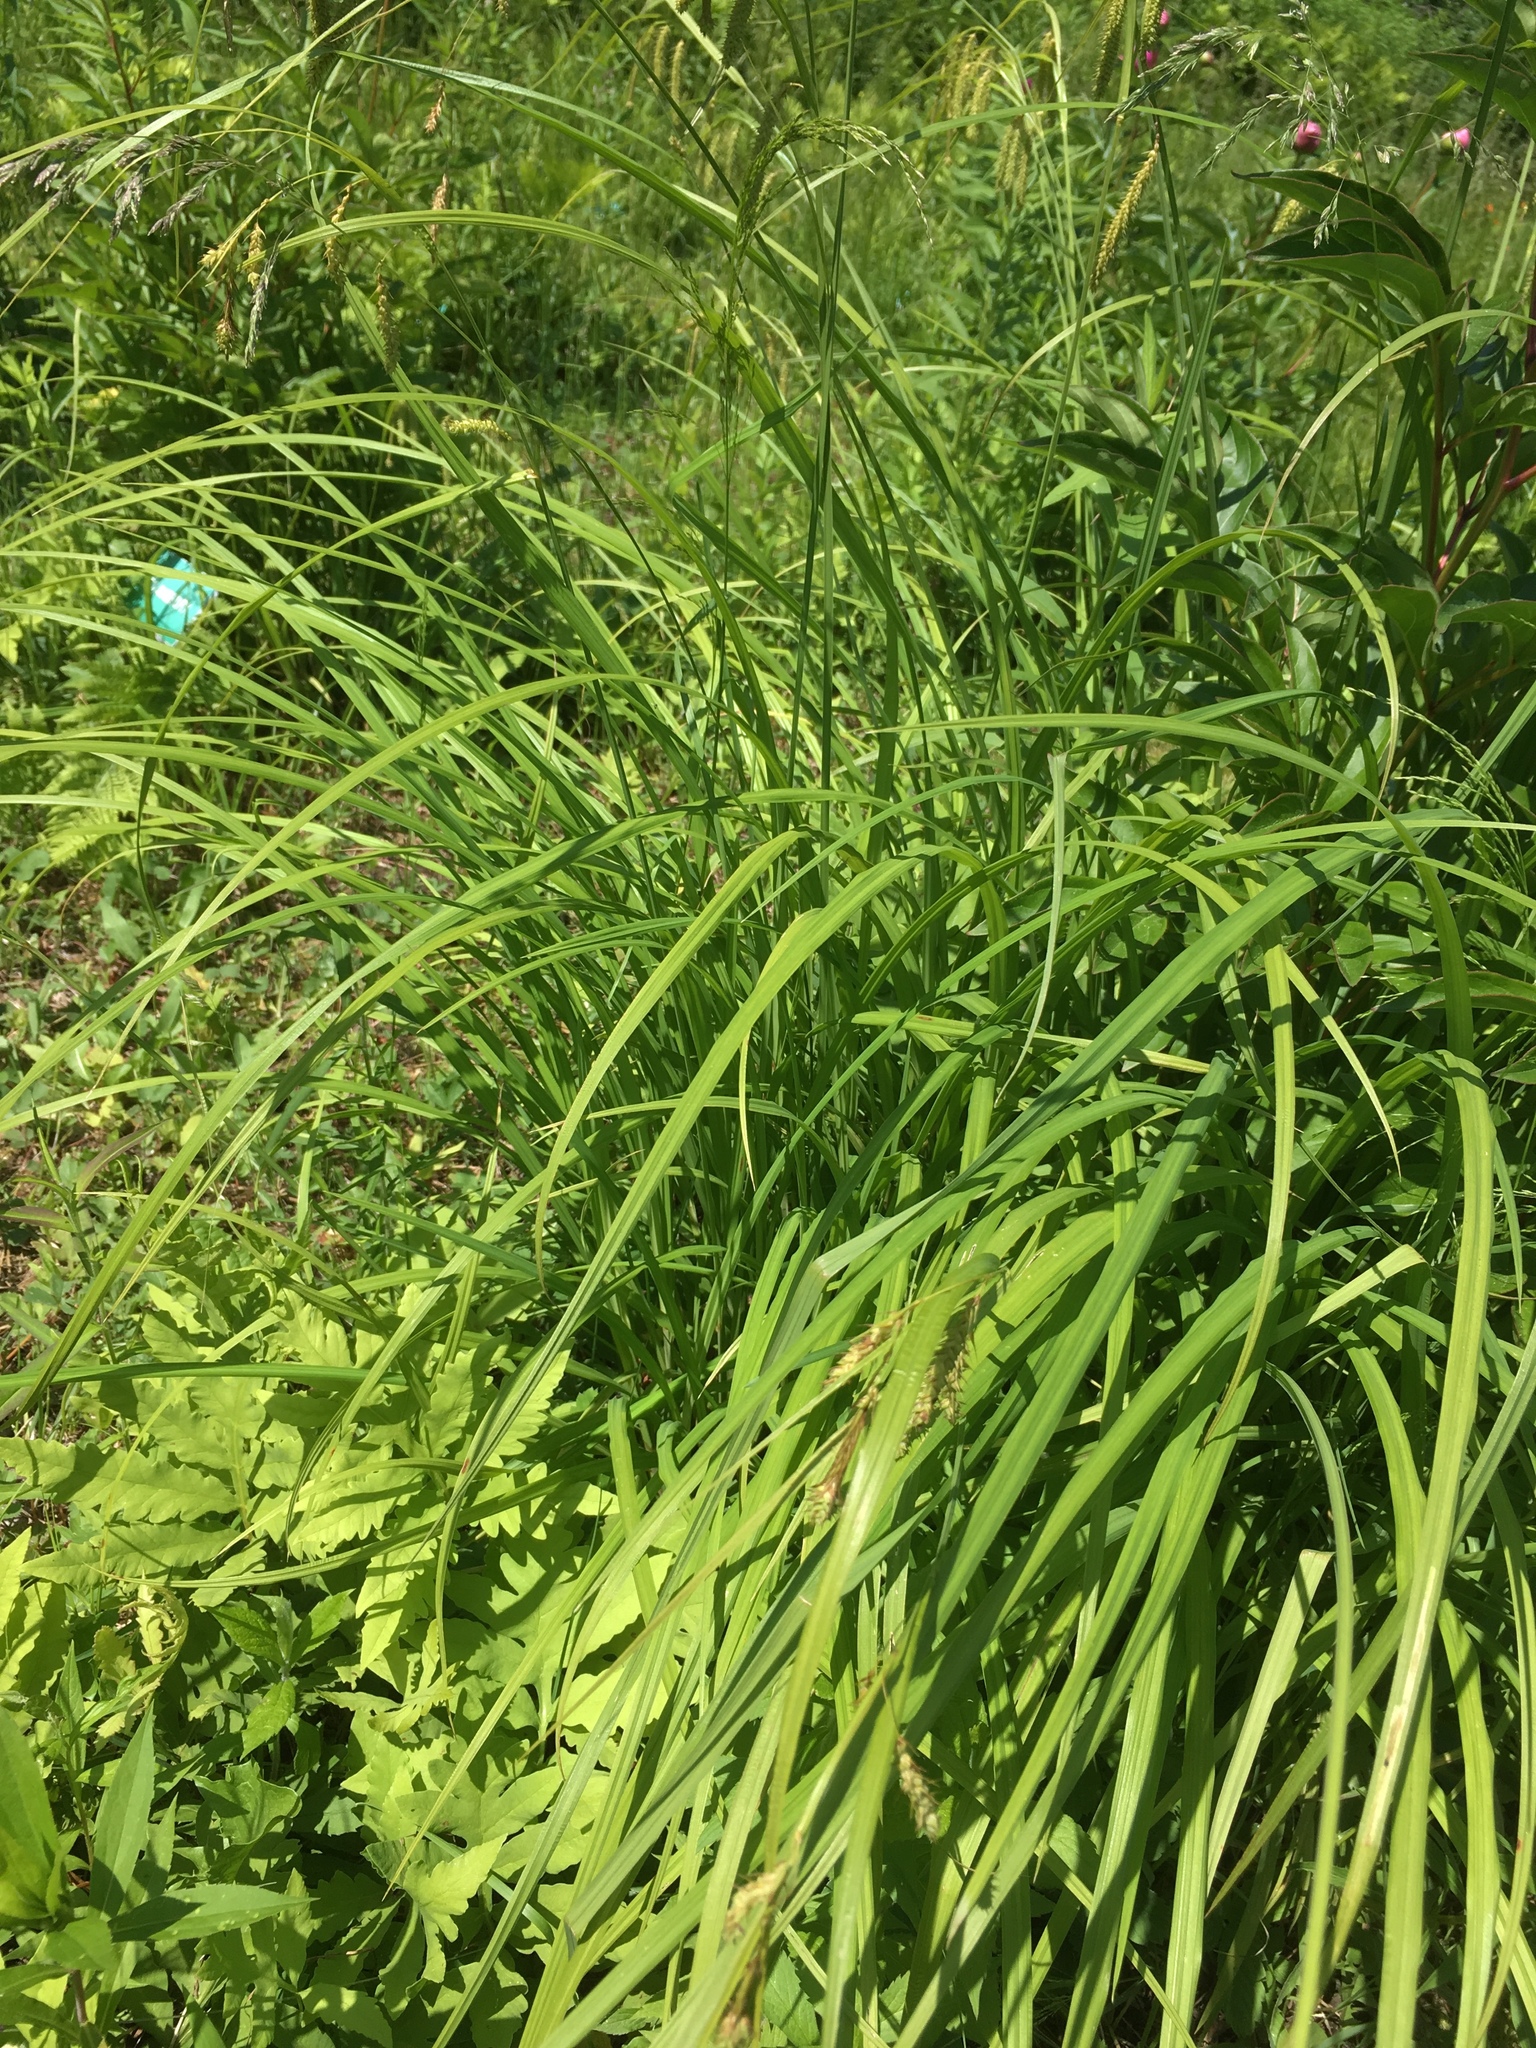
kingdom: Plantae
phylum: Tracheophyta
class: Liliopsida
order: Poales
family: Cyperaceae
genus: Carex
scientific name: Carex gynandra
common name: Nodding sedge
